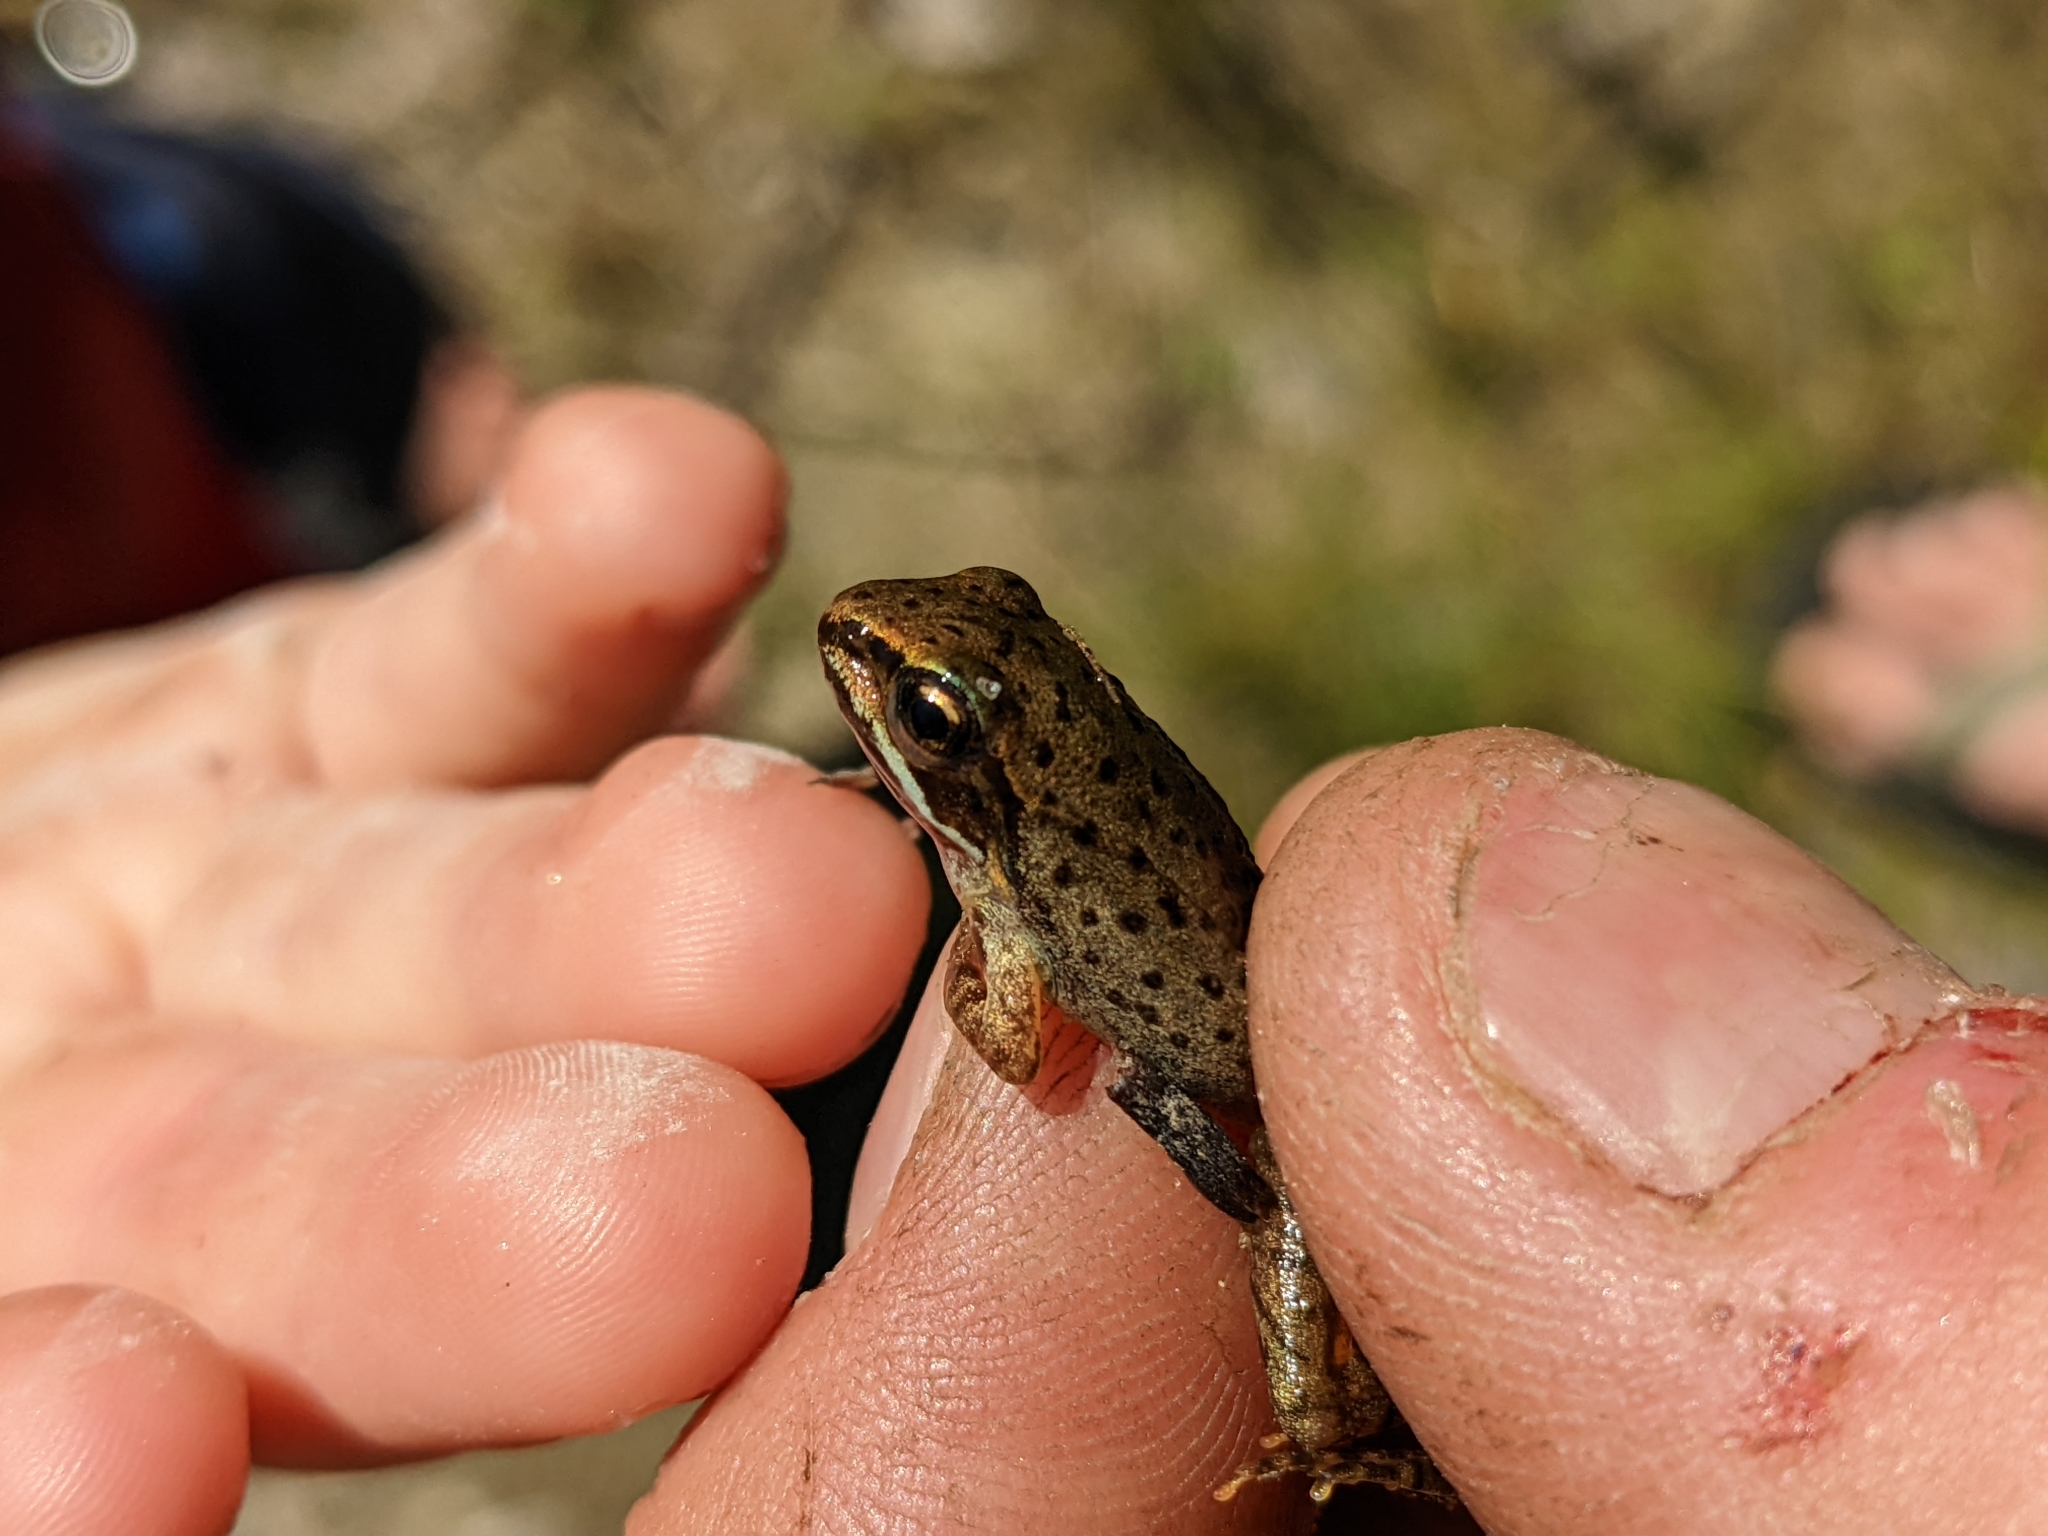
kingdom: Animalia
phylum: Chordata
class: Amphibia
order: Anura
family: Ranidae
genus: Lithobates
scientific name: Lithobates sylvaticus
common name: Wood frog
